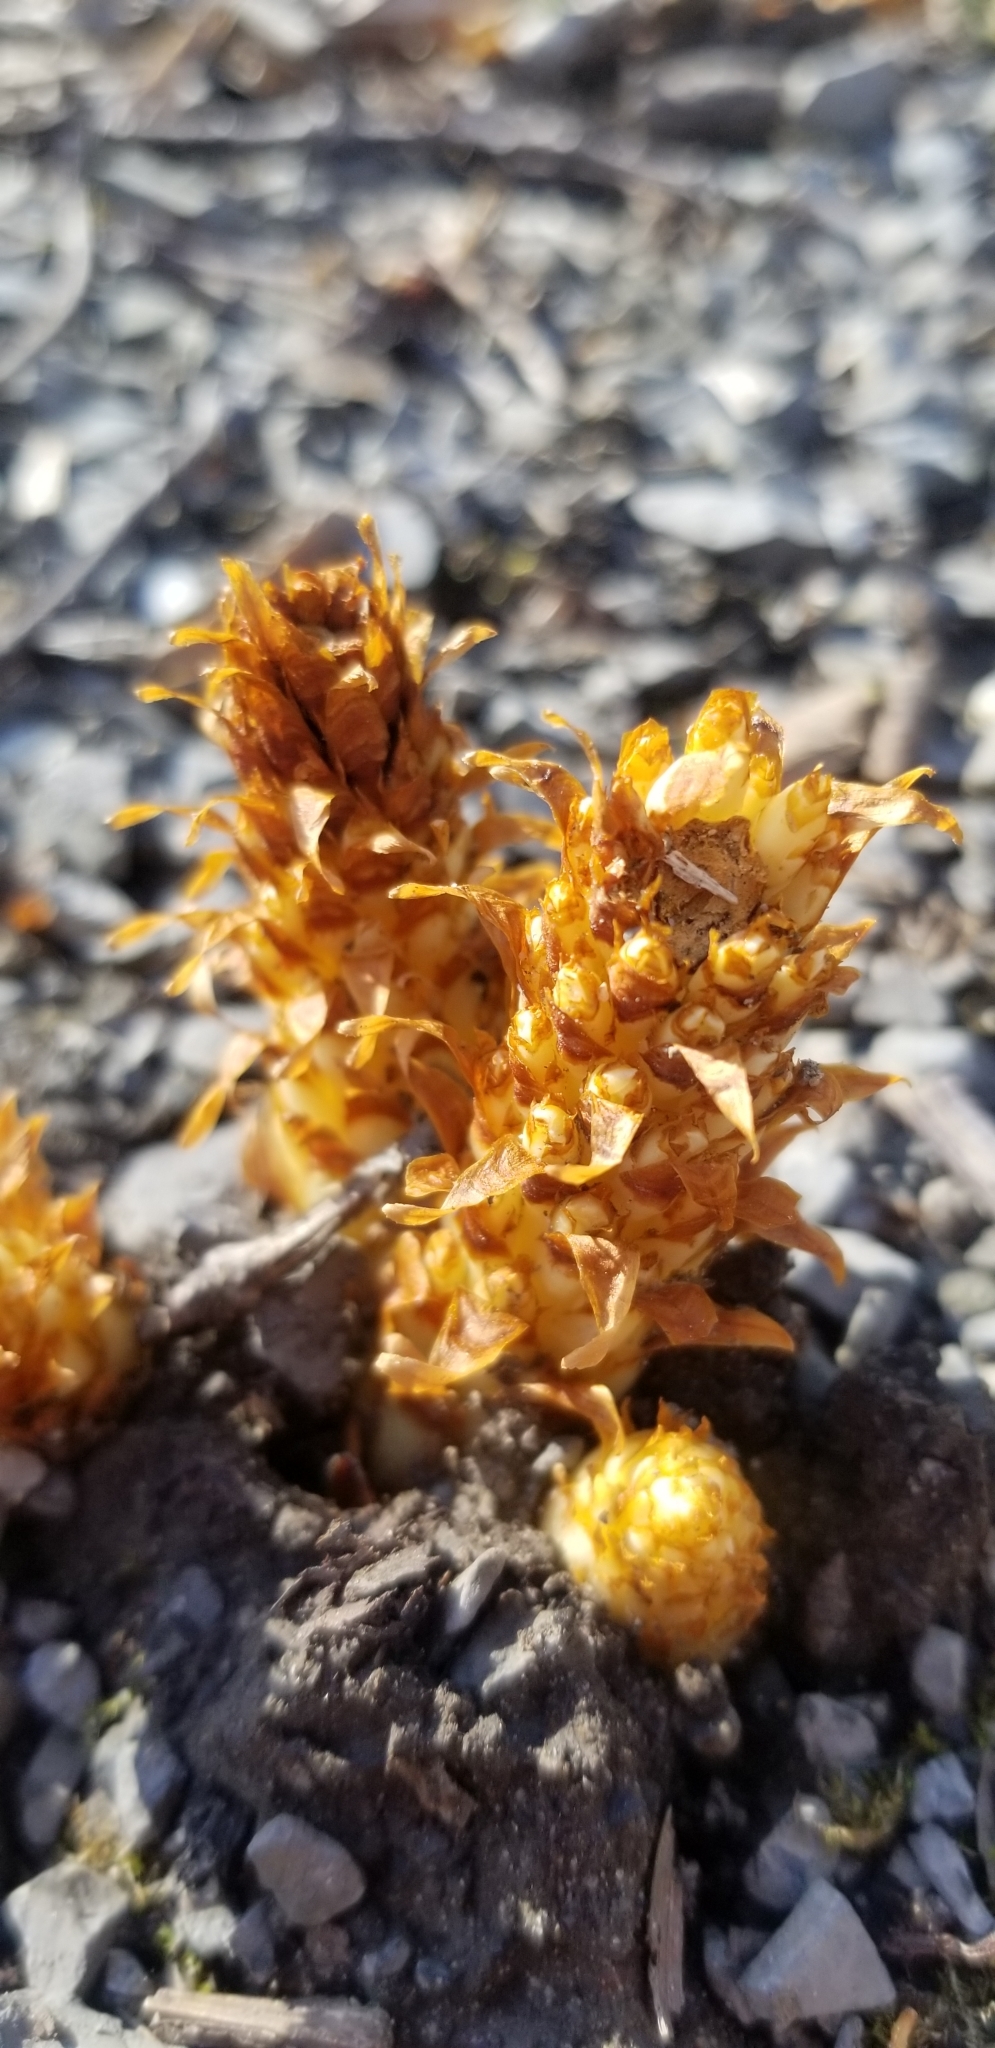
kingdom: Plantae
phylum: Tracheophyta
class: Magnoliopsida
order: Lamiales
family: Orobanchaceae
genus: Conopholis
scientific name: Conopholis americana
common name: American cancer-root
